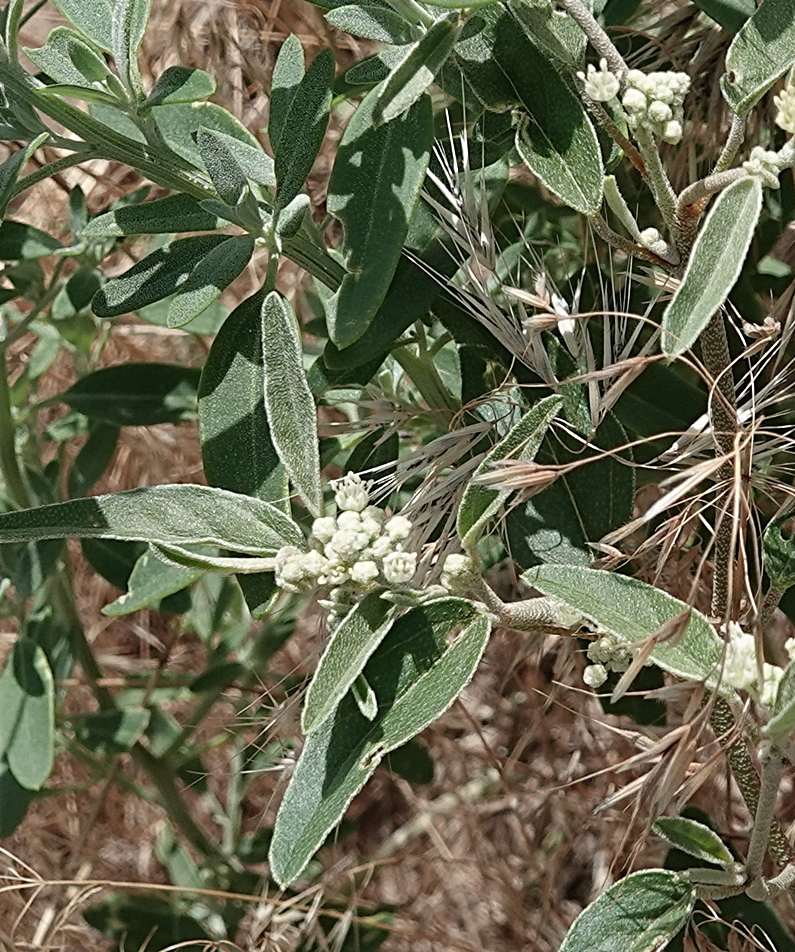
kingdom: Plantae
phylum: Tracheophyta
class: Magnoliopsida
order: Malpighiales
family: Euphorbiaceae
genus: Croton
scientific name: Croton texensis
